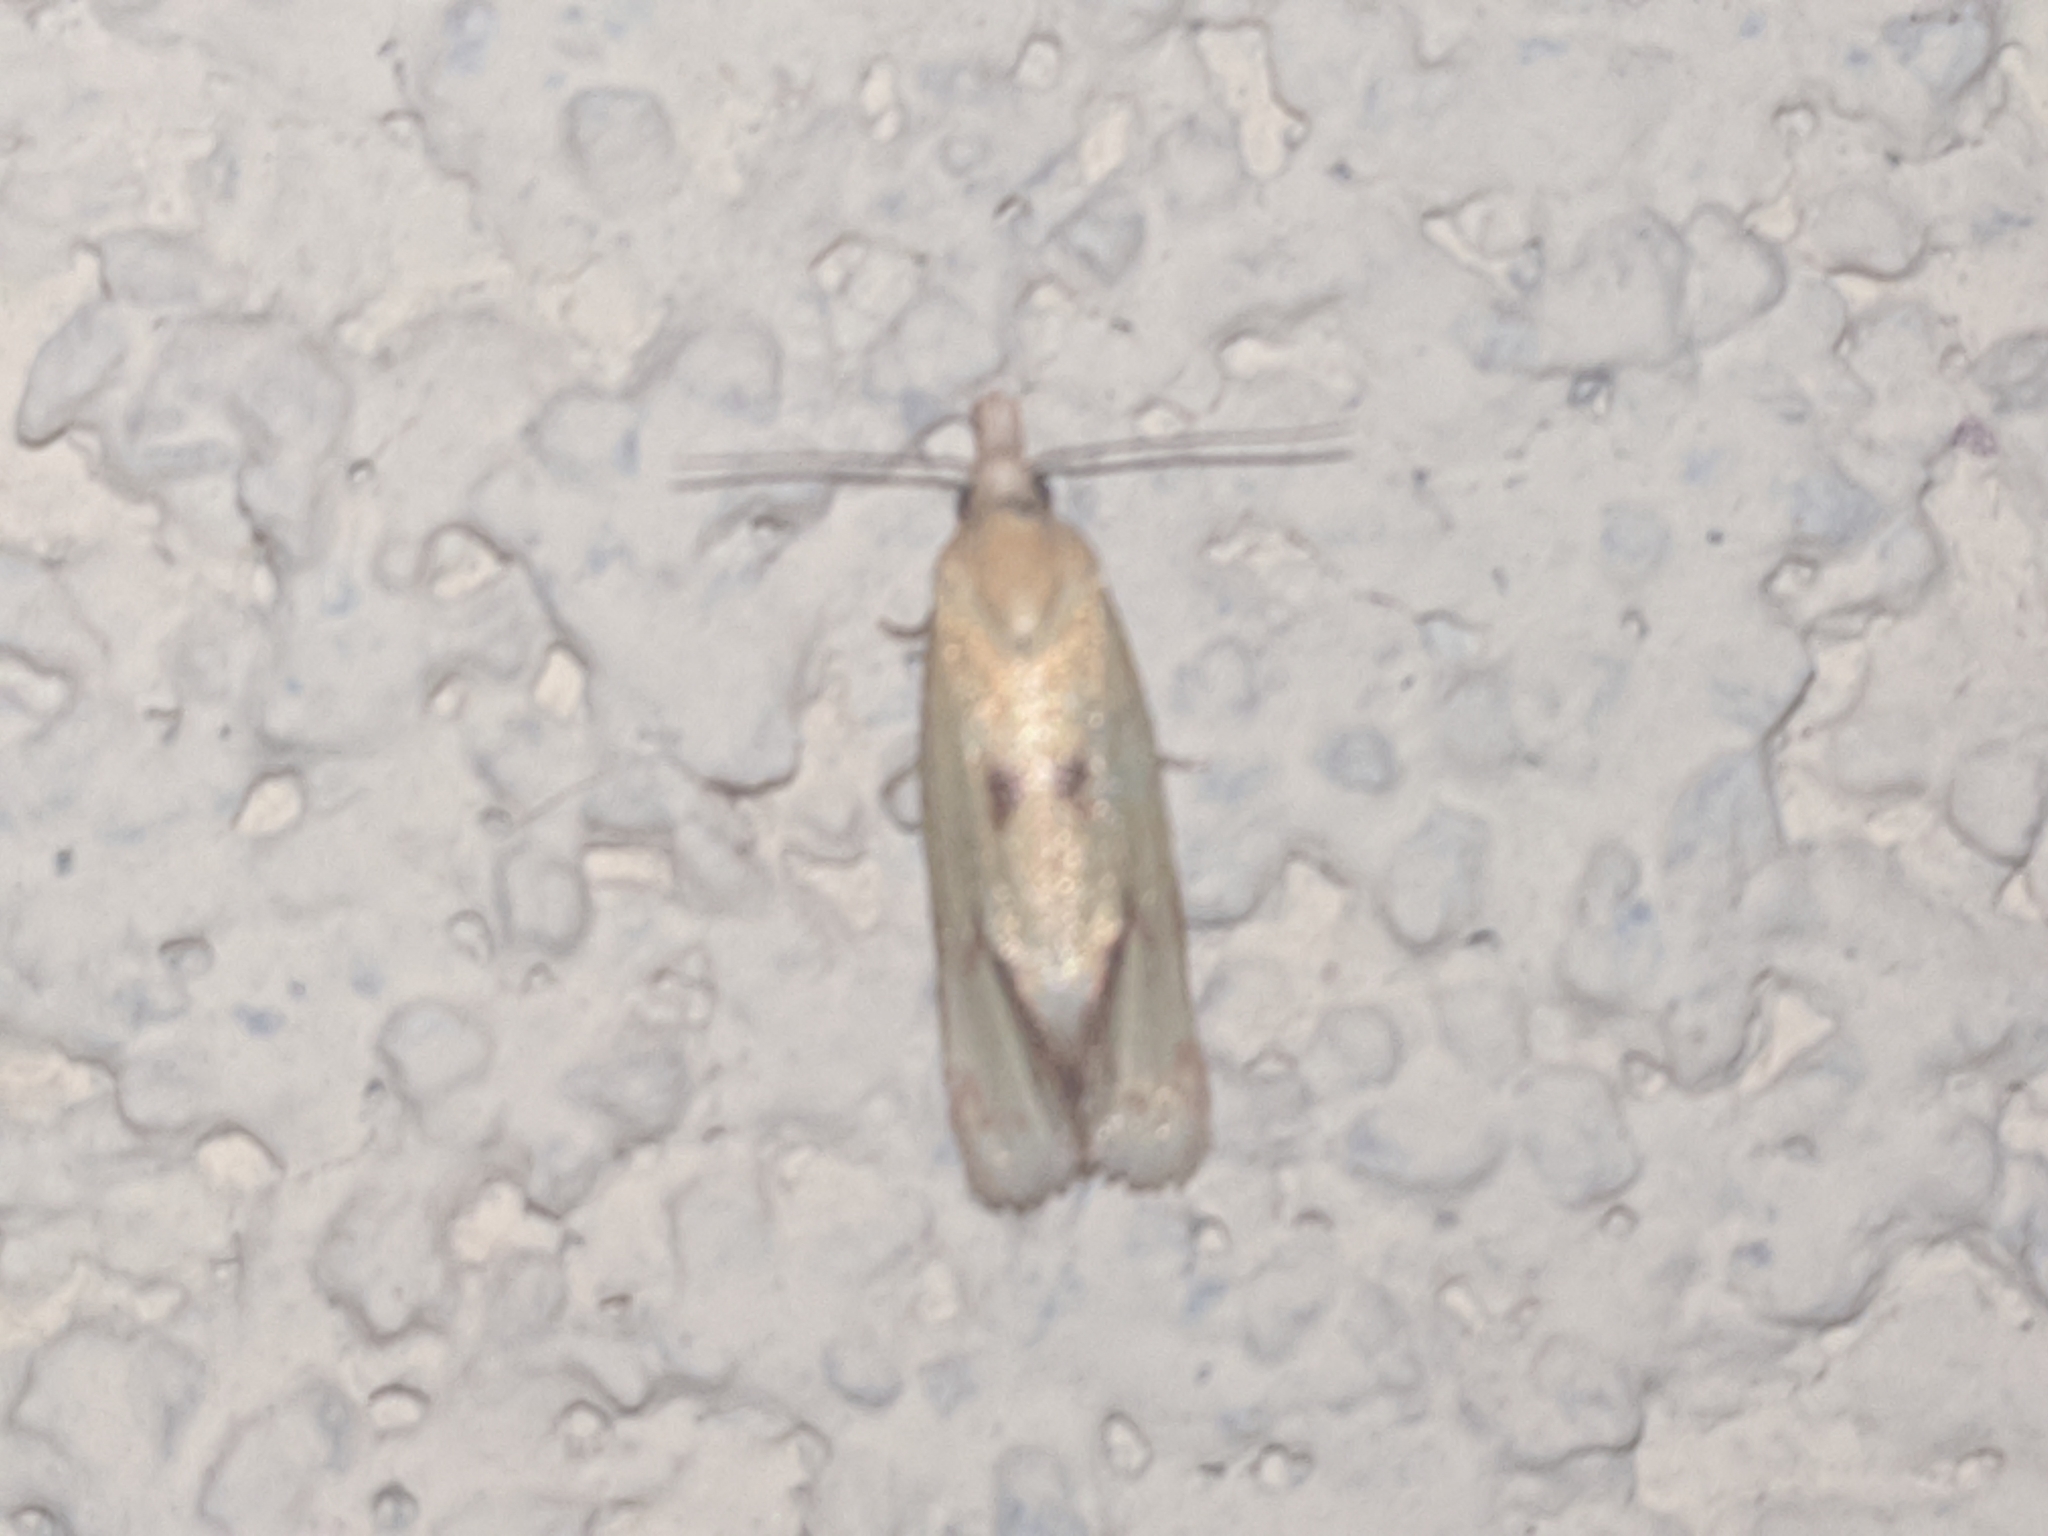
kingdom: Animalia
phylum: Arthropoda
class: Insecta
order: Lepidoptera
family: Tortricidae
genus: Agapeta
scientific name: Agapeta hamana
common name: Common yellow conch
